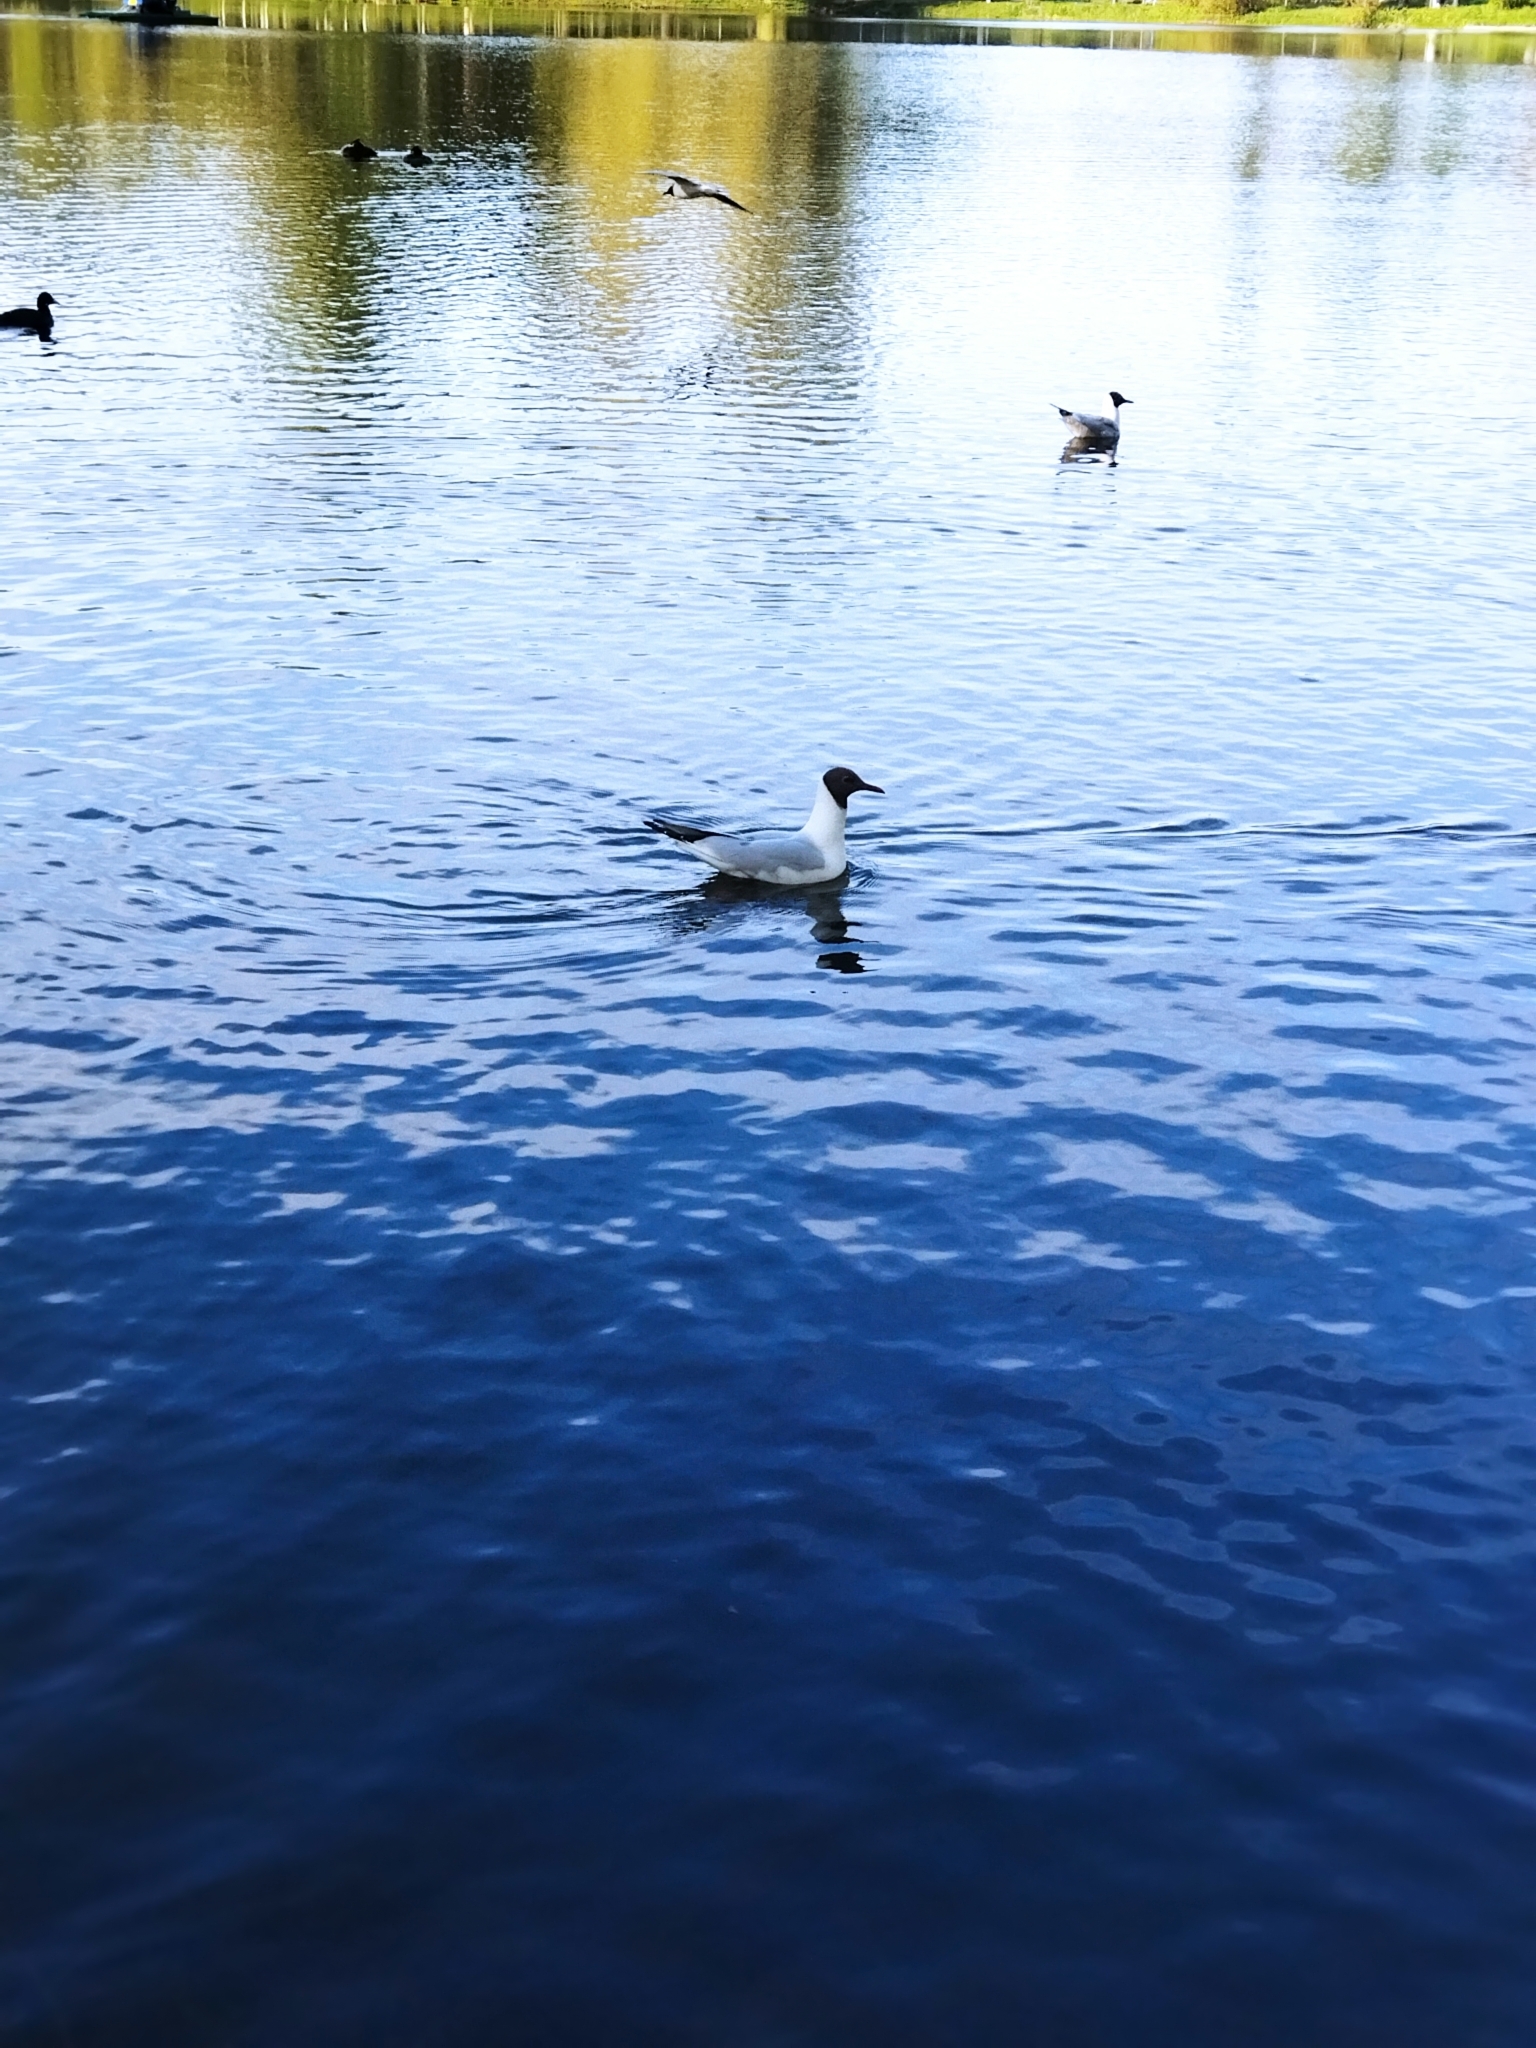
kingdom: Animalia
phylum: Chordata
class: Aves
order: Charadriiformes
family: Laridae
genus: Chroicocephalus
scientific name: Chroicocephalus ridibundus
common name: Black-headed gull
